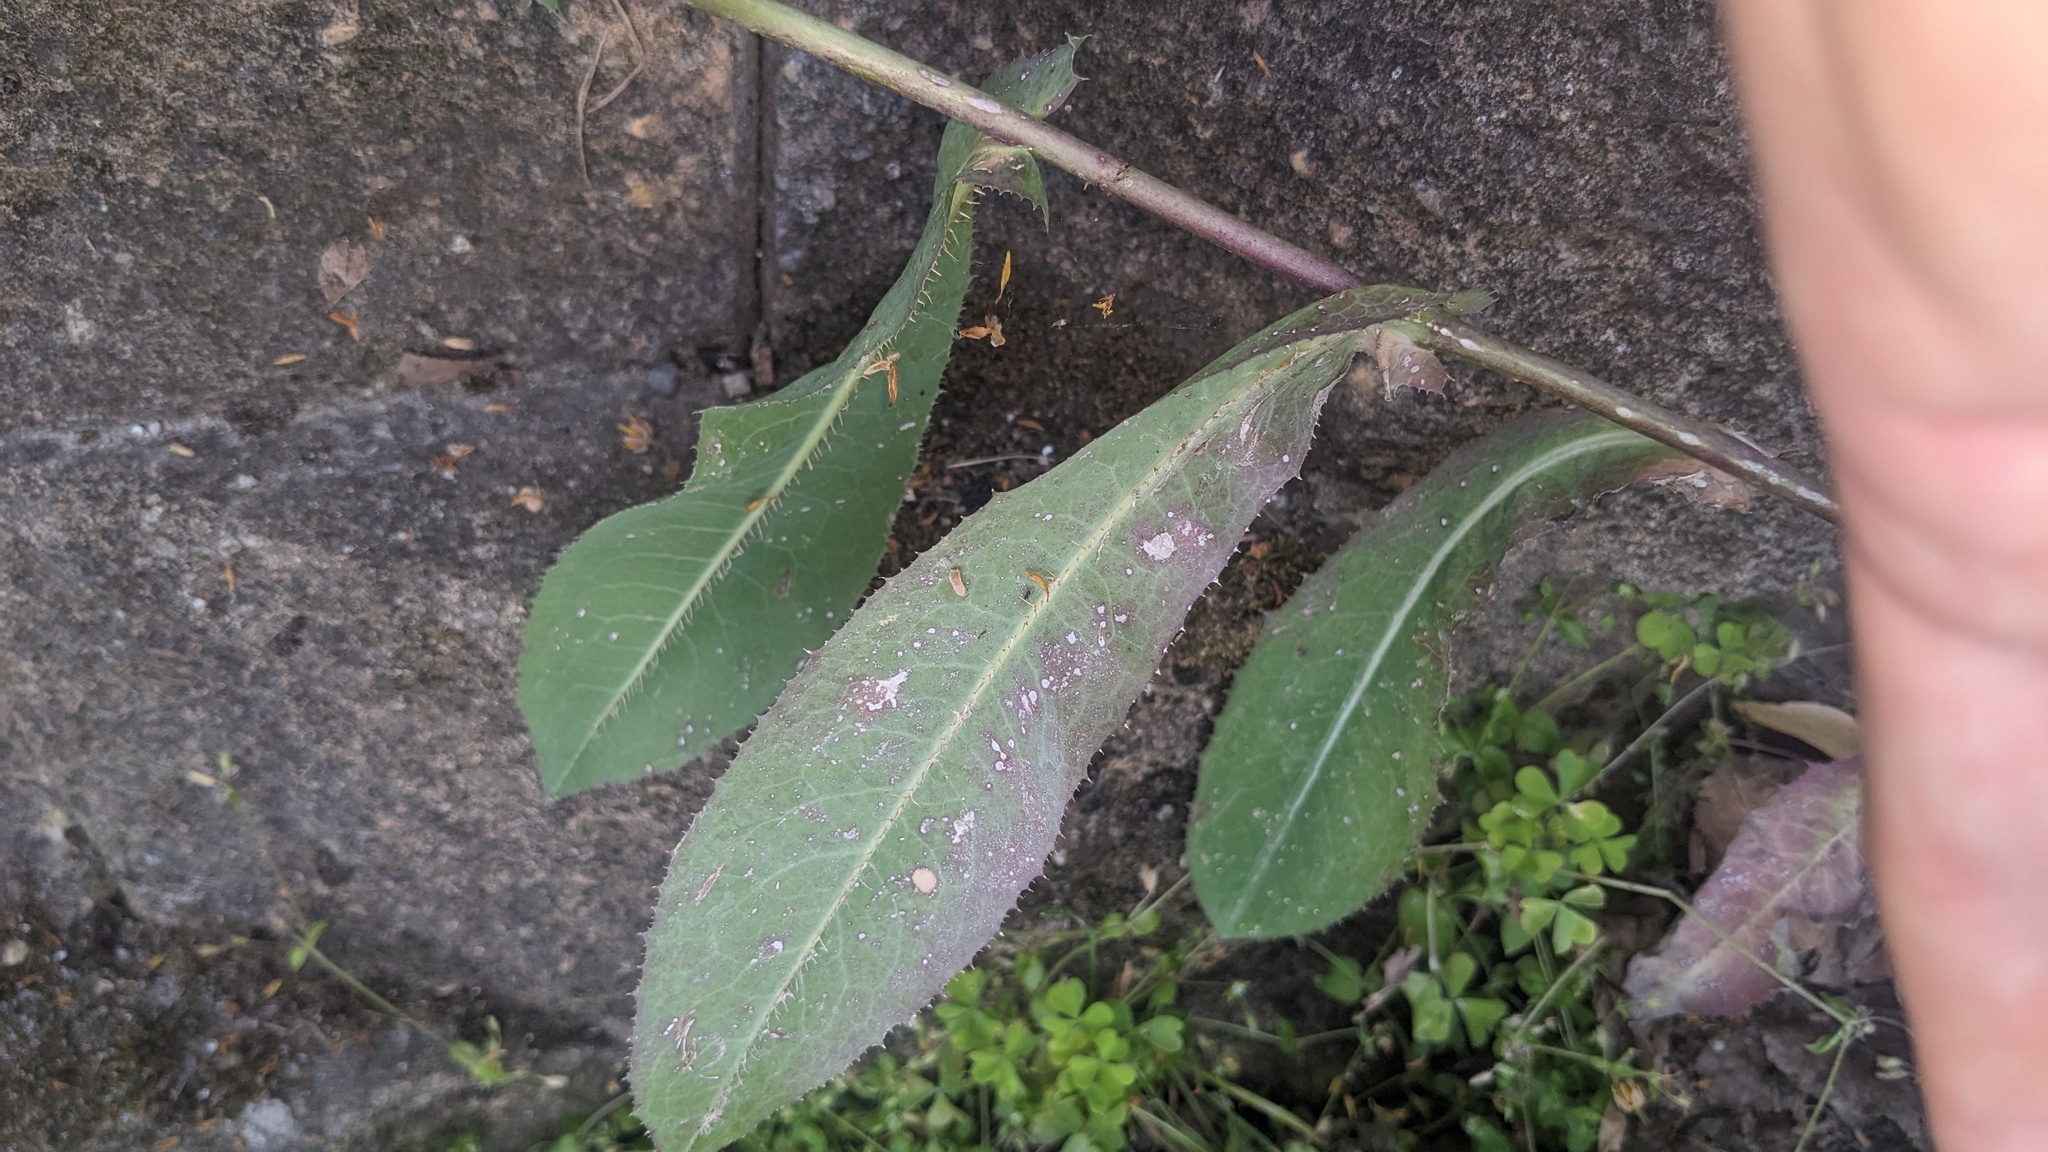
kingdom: Plantae
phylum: Tracheophyta
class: Magnoliopsida
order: Asterales
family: Asteraceae
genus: Lactuca
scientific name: Lactuca serriola
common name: Prickly lettuce
